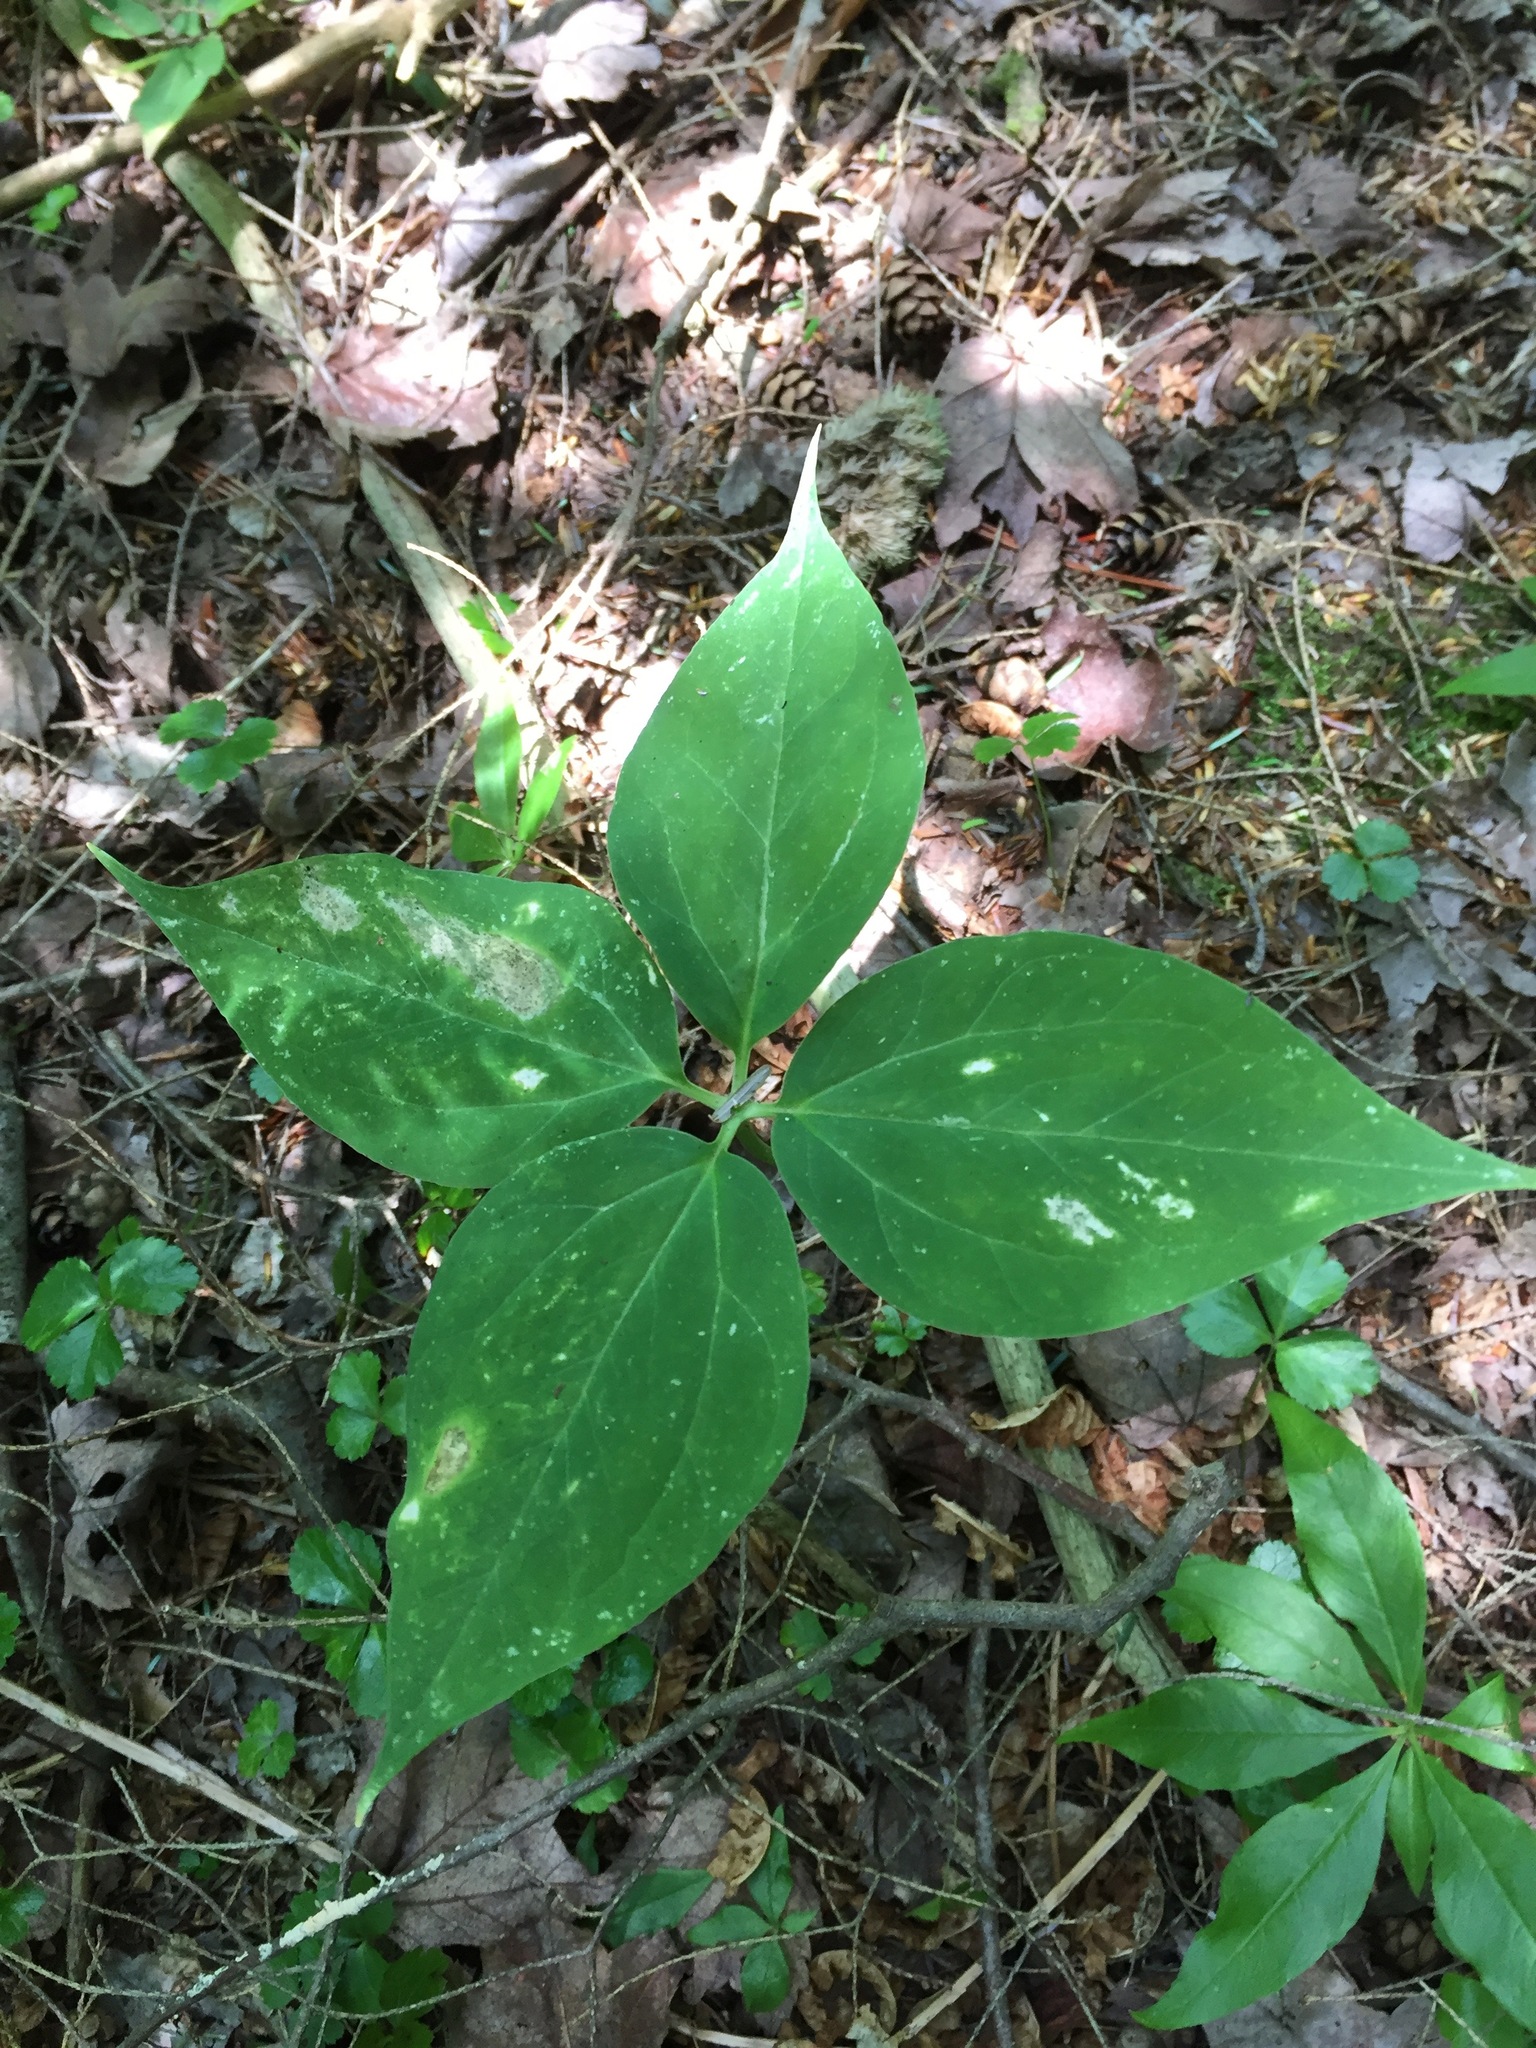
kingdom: Plantae
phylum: Tracheophyta
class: Liliopsida
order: Liliales
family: Melanthiaceae
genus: Trillium
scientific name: Trillium undulatum
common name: Paint trillium
